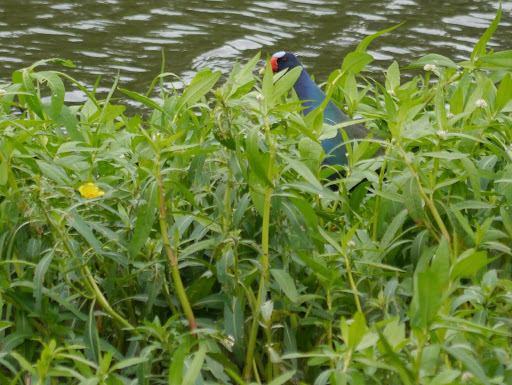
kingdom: Animalia
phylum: Chordata
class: Aves
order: Gruiformes
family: Rallidae
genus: Porphyrio
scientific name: Porphyrio martinica
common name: Purple gallinule
